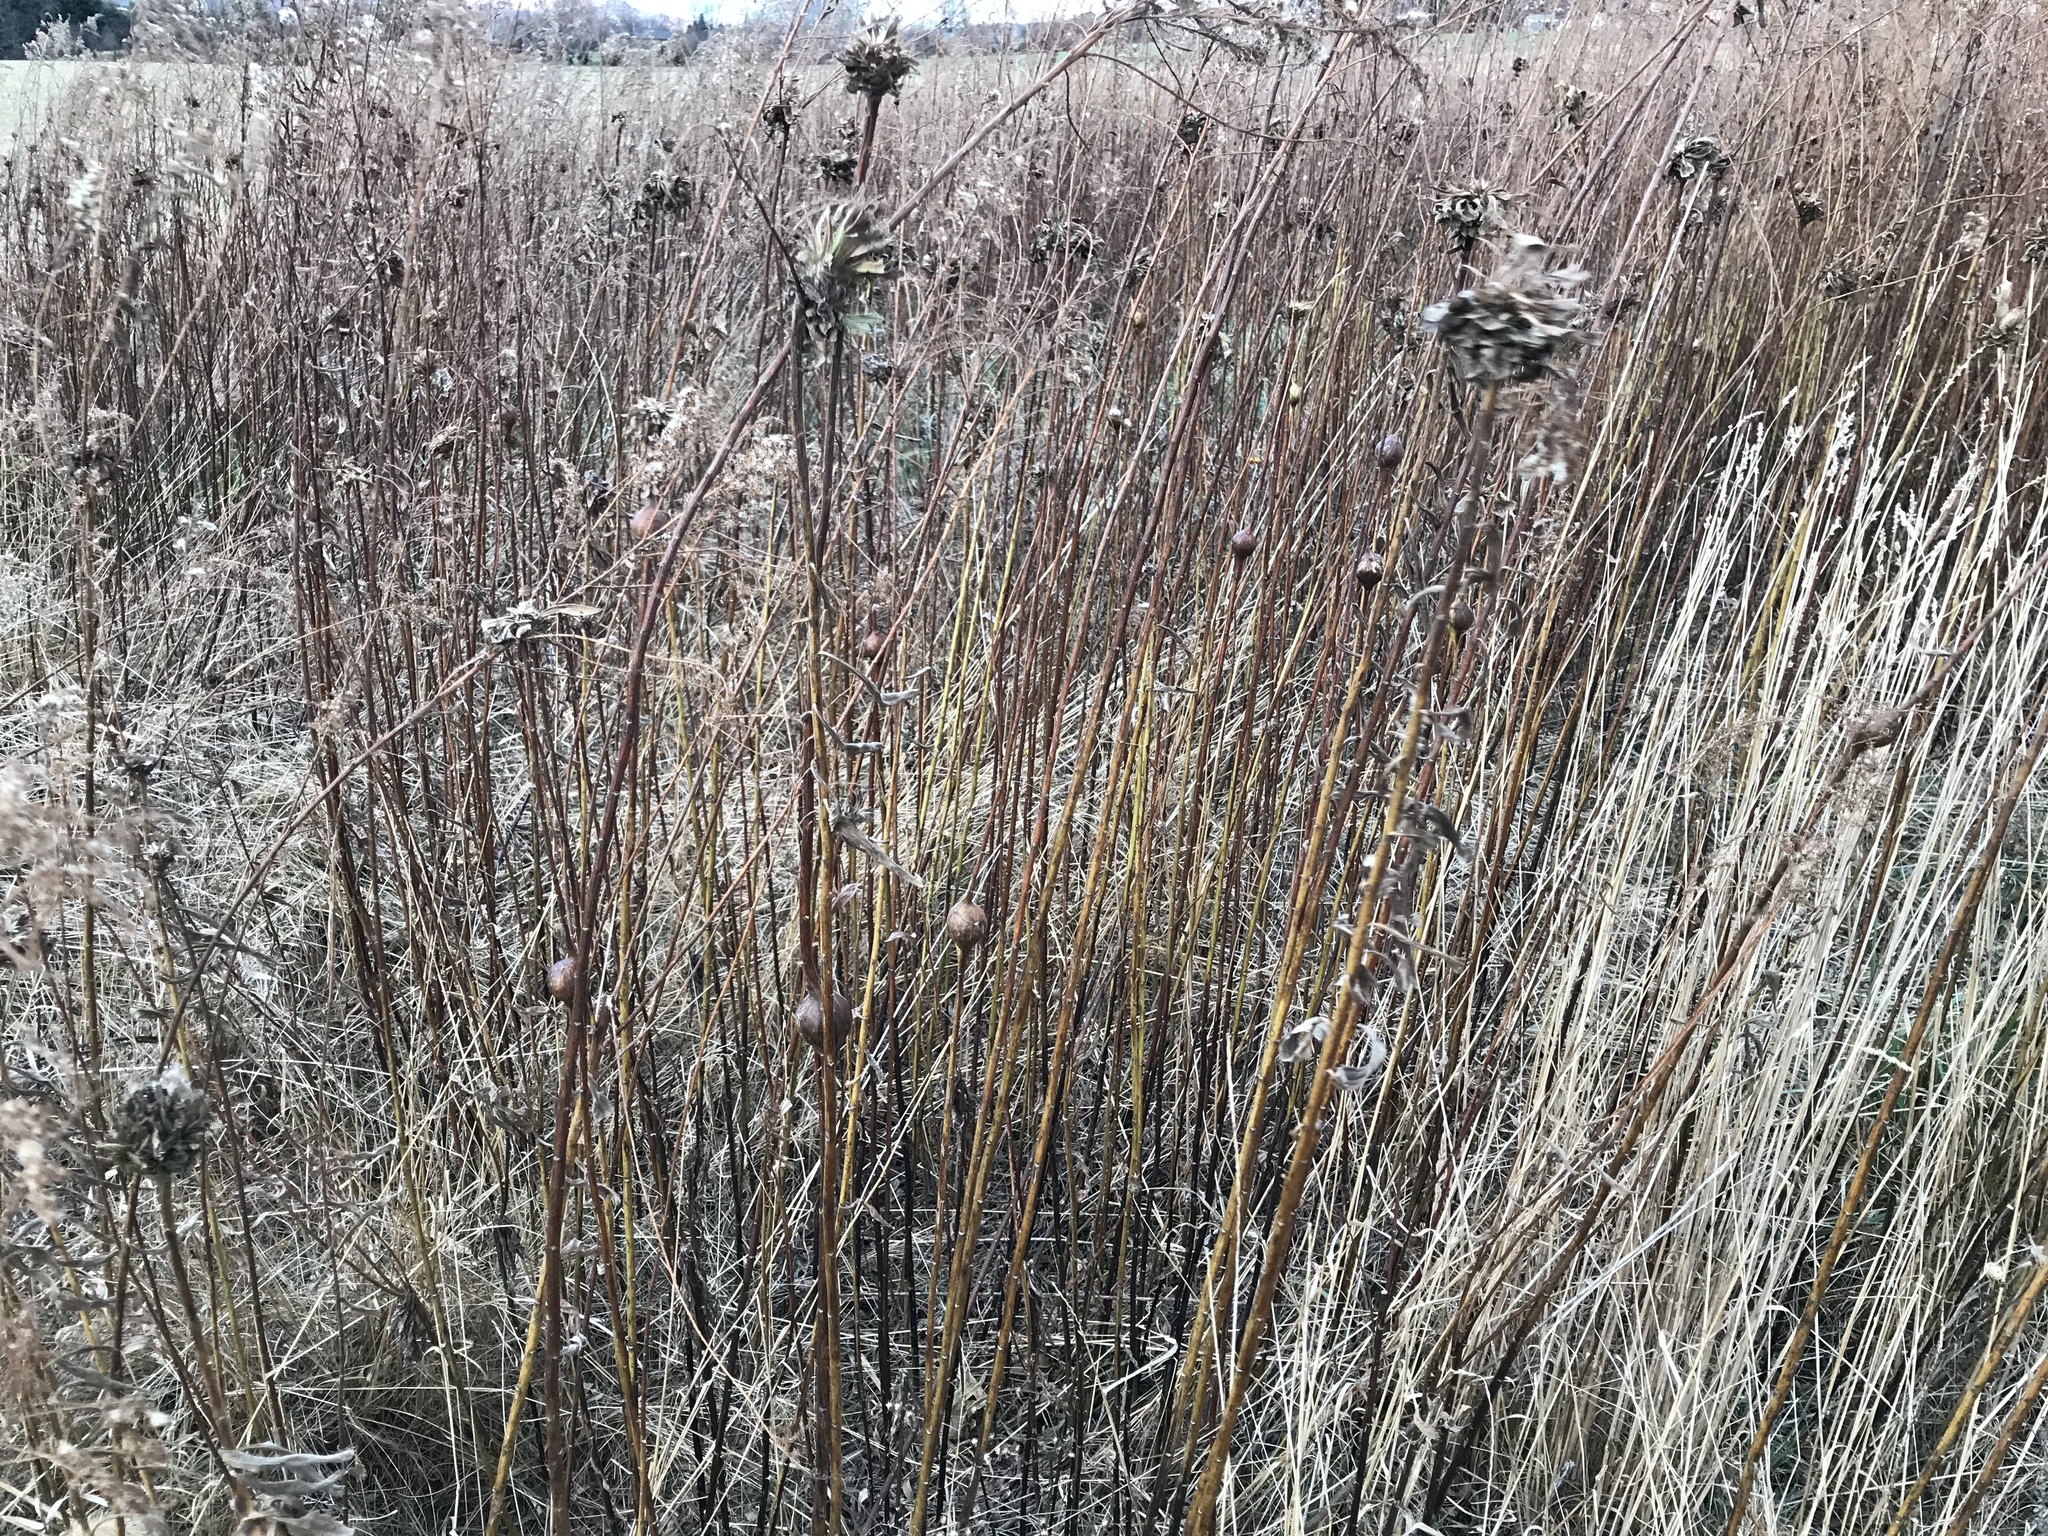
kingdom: Animalia
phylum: Arthropoda
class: Insecta
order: Diptera
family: Tephritidae
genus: Eurosta
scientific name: Eurosta solidaginis
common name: Goldenrod gall fly
